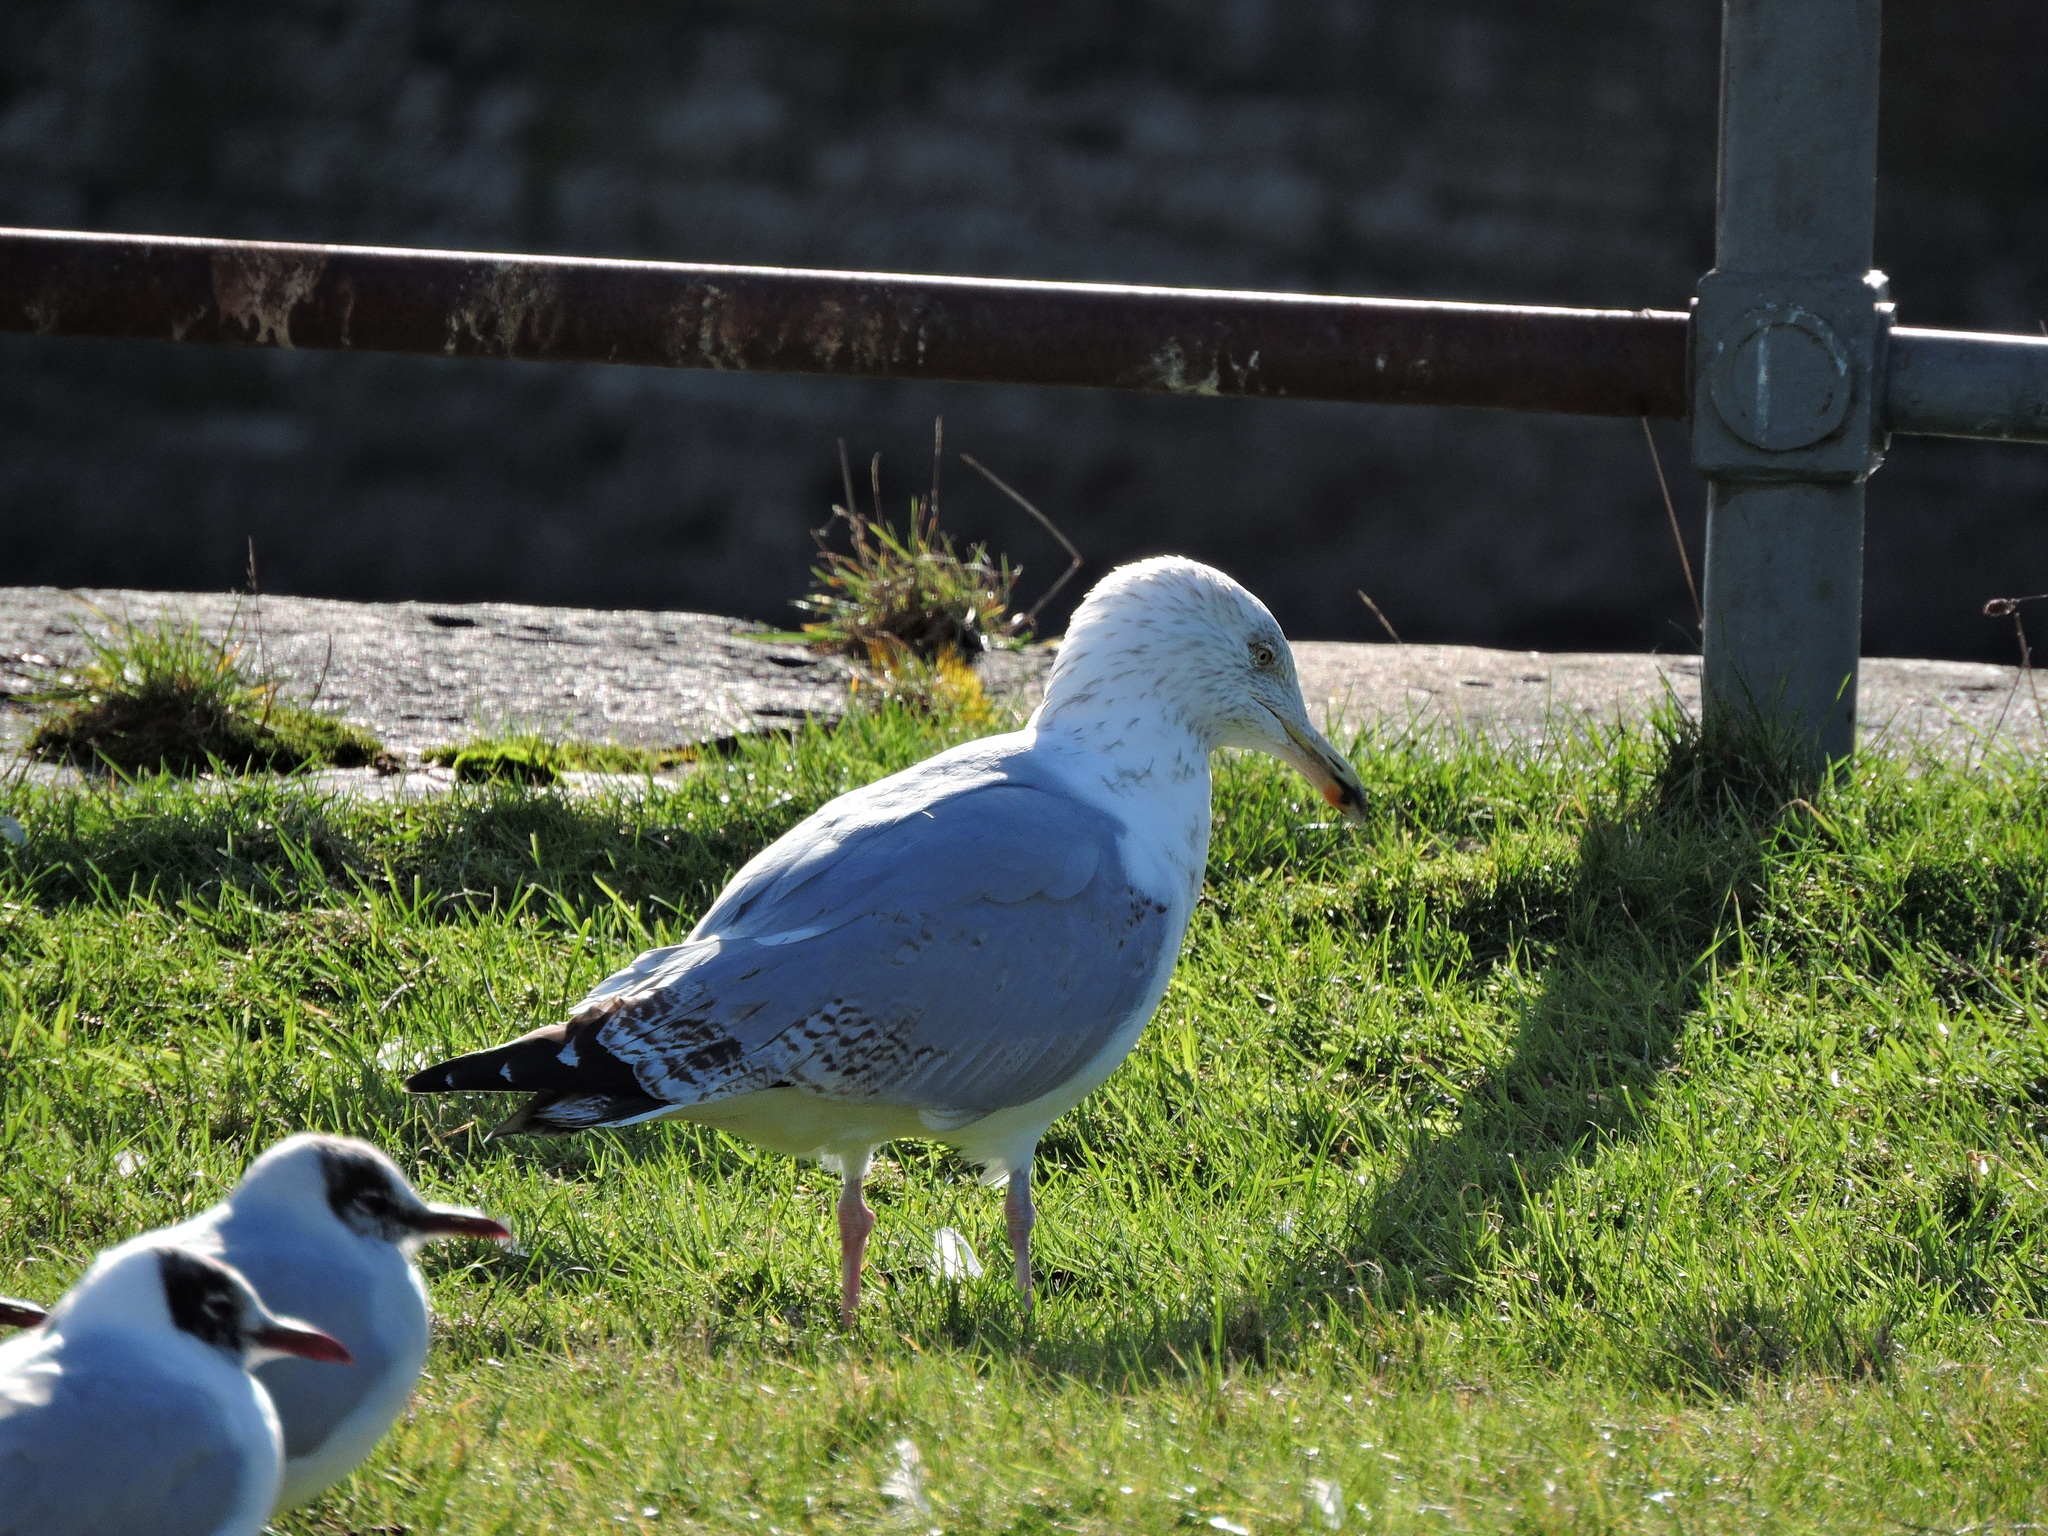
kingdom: Animalia
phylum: Chordata
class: Aves
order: Charadriiformes
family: Laridae
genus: Larus
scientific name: Larus argentatus
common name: Herring gull
